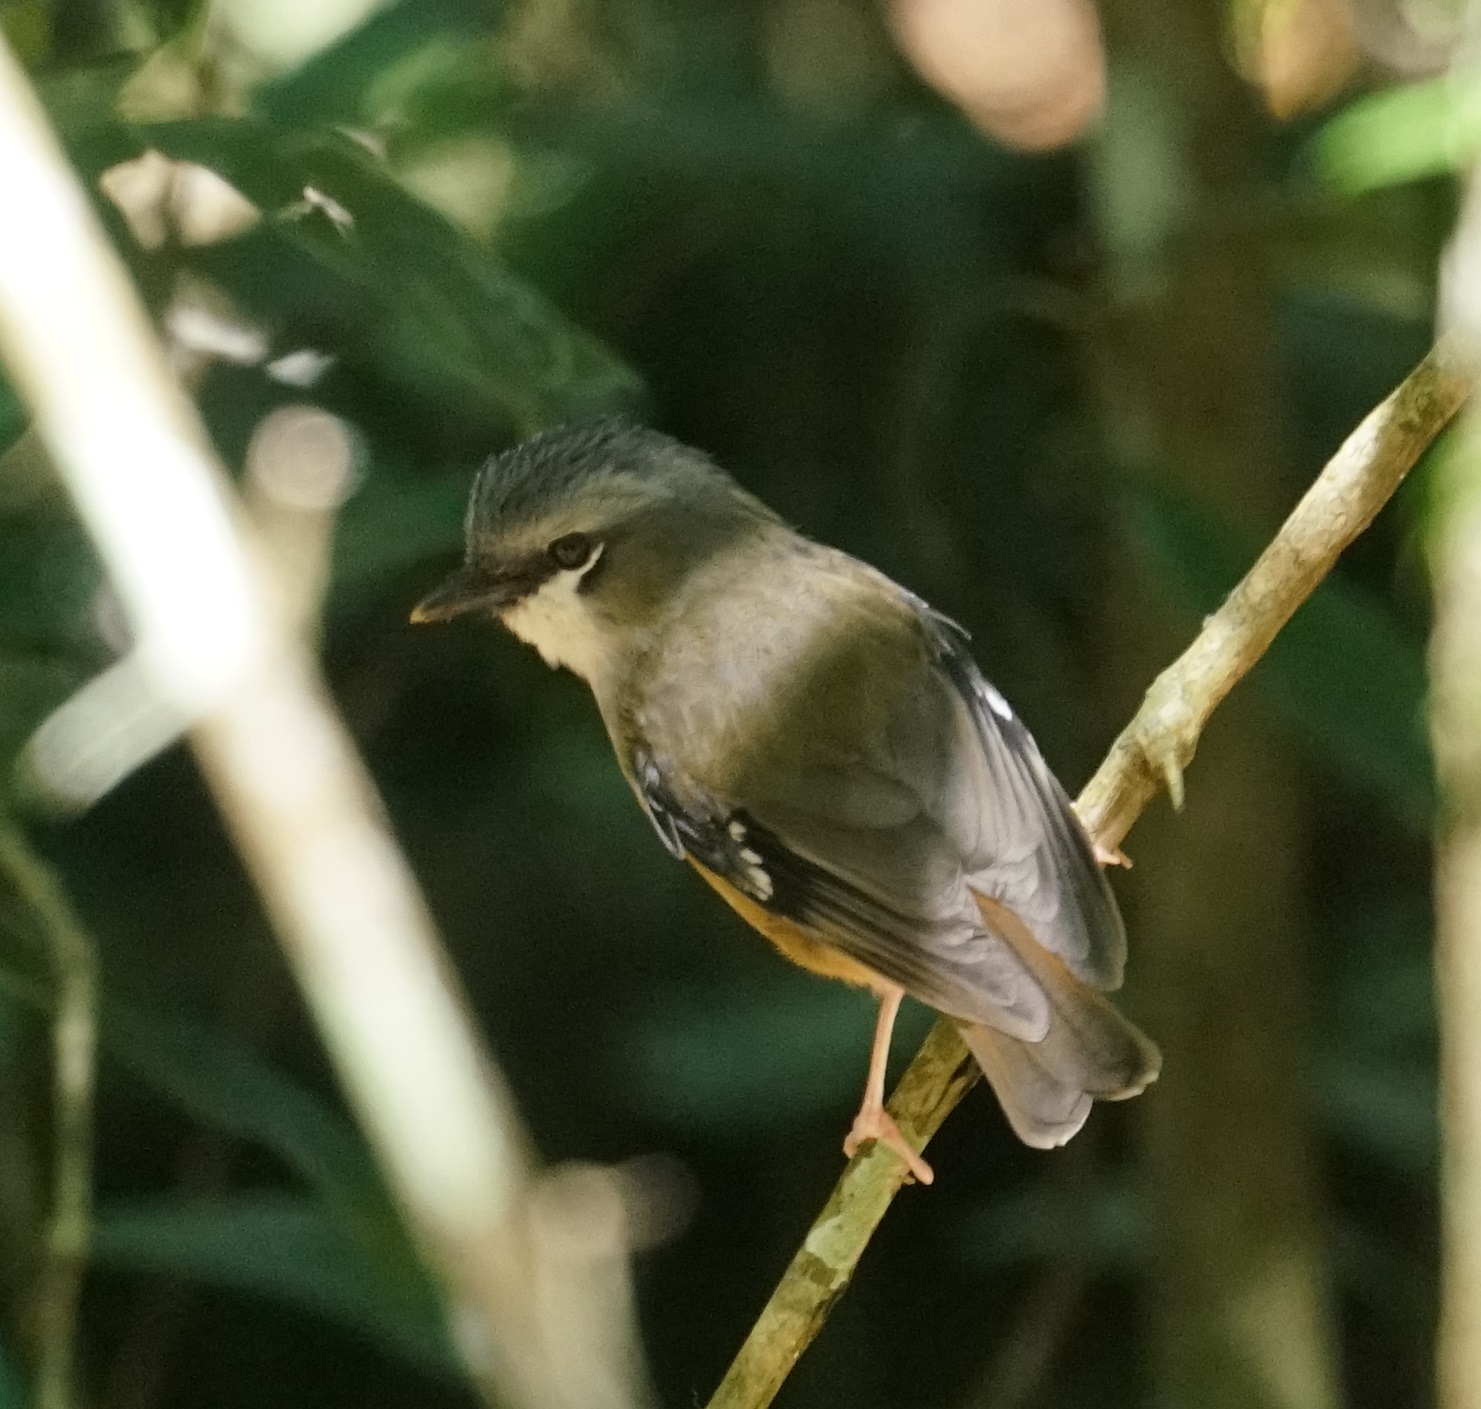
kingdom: Animalia
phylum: Chordata
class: Aves
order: Passeriformes
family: Petroicidae
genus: Heteromyias
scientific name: Heteromyias cinereifrons
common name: Grey-headed robin
